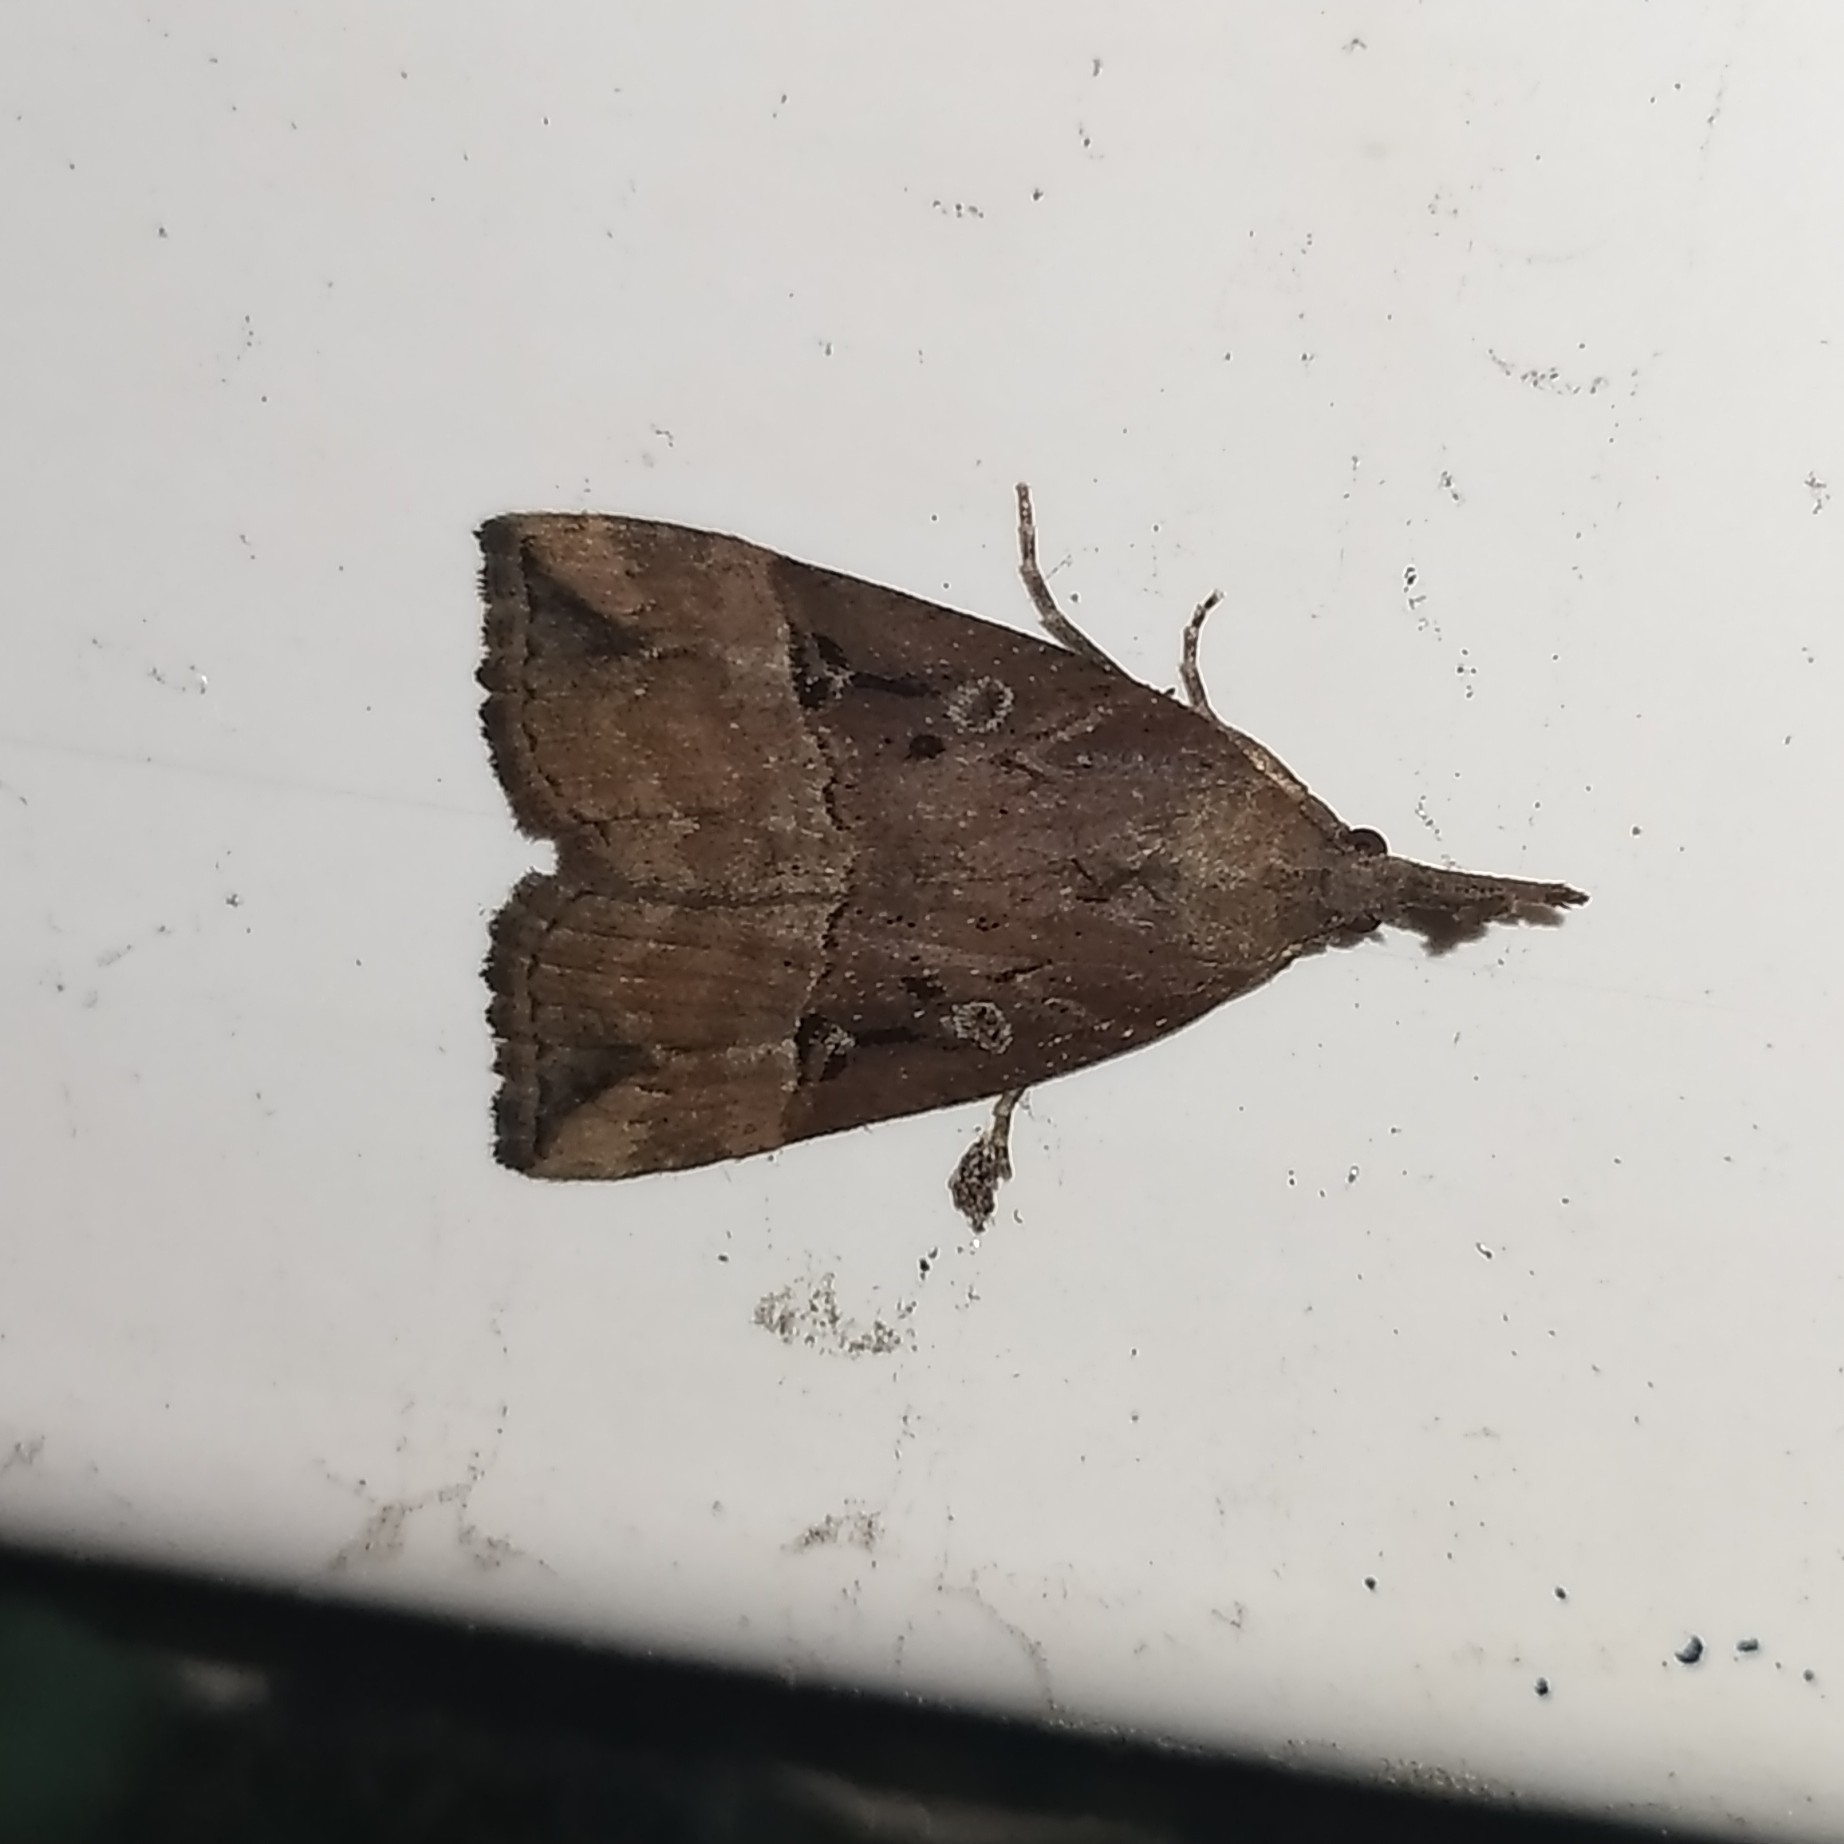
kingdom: Animalia
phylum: Arthropoda
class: Insecta
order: Lepidoptera
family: Erebidae
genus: Hypena
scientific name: Hypena rostralis
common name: Buttoned snout
